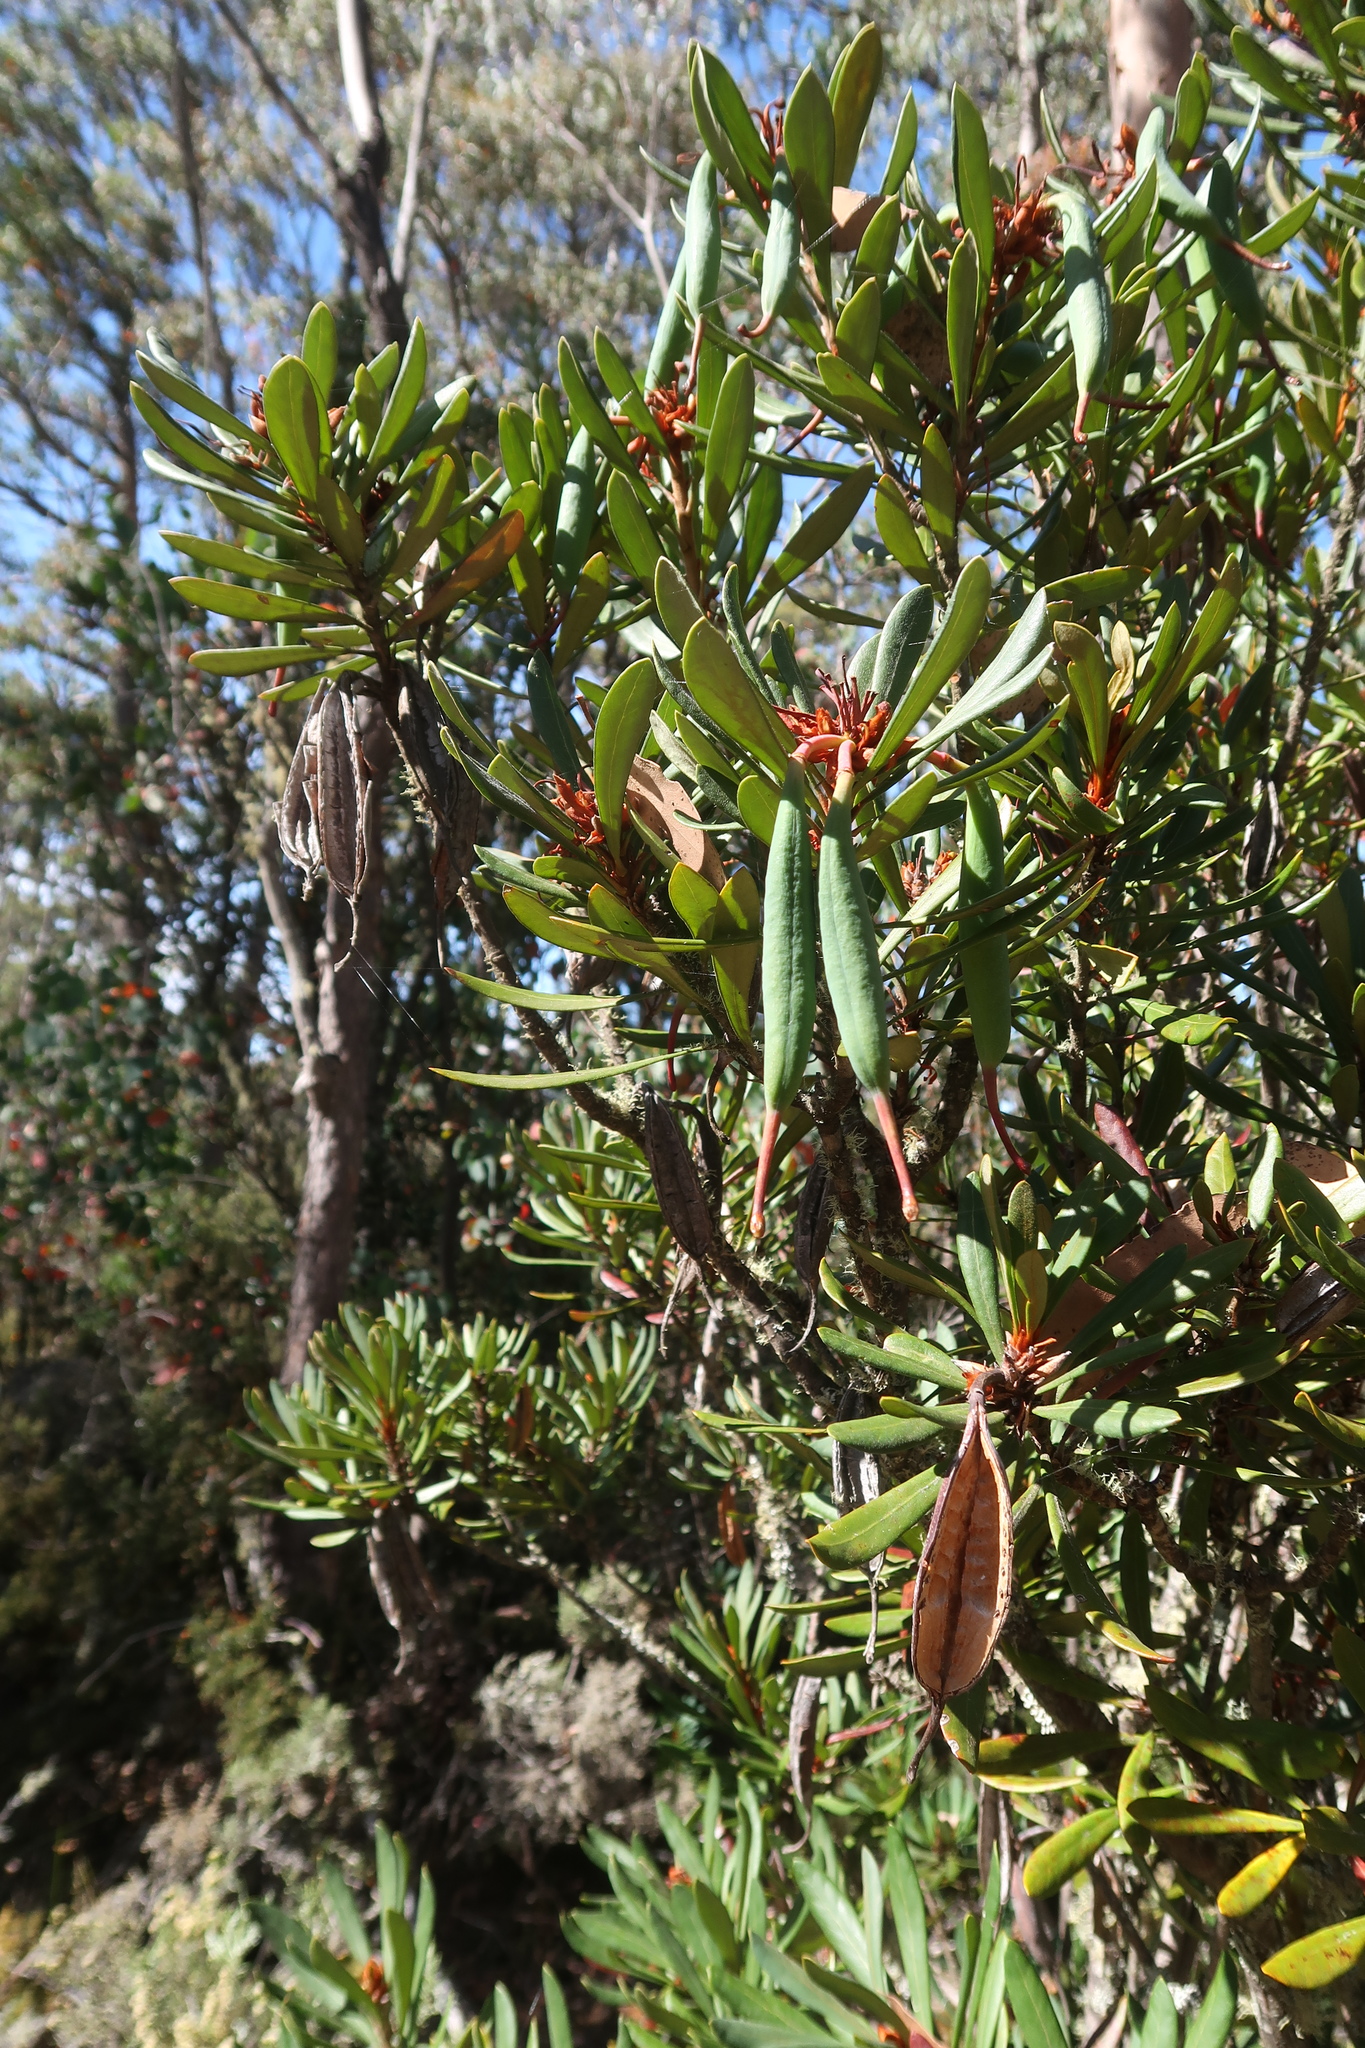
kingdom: Plantae
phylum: Tracheophyta
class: Magnoliopsida
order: Proteales
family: Proteaceae
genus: Telopea
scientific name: Telopea truncata
